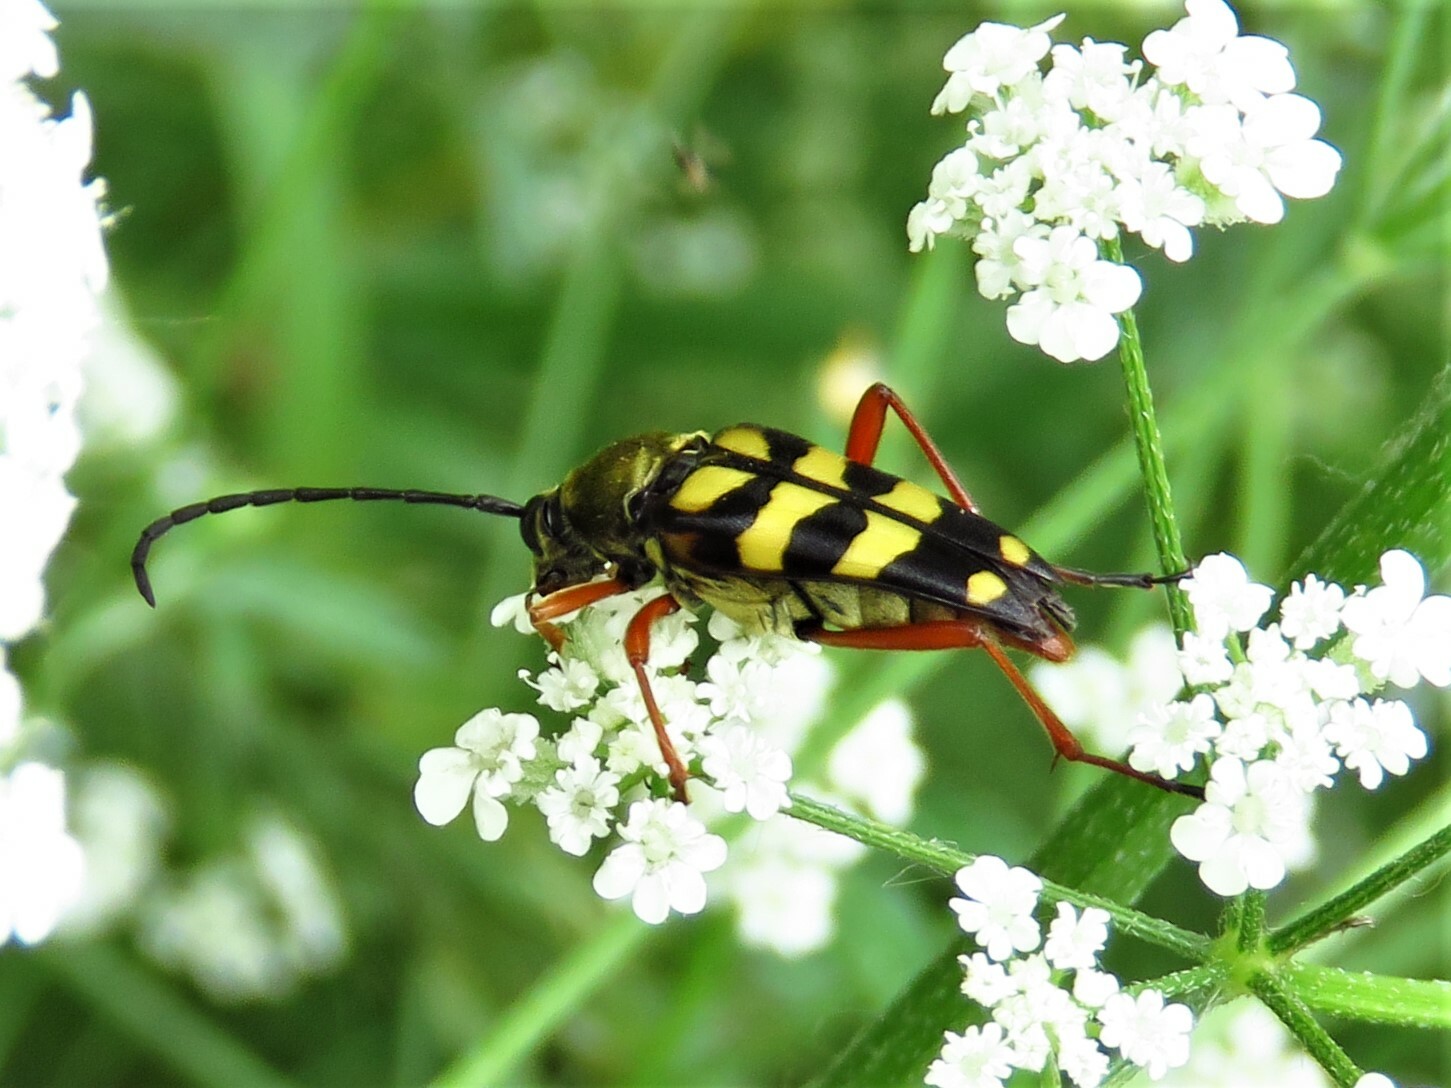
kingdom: Animalia
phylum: Arthropoda
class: Insecta
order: Coleoptera
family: Cerambycidae
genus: Typocerus
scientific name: Typocerus sinuatus
